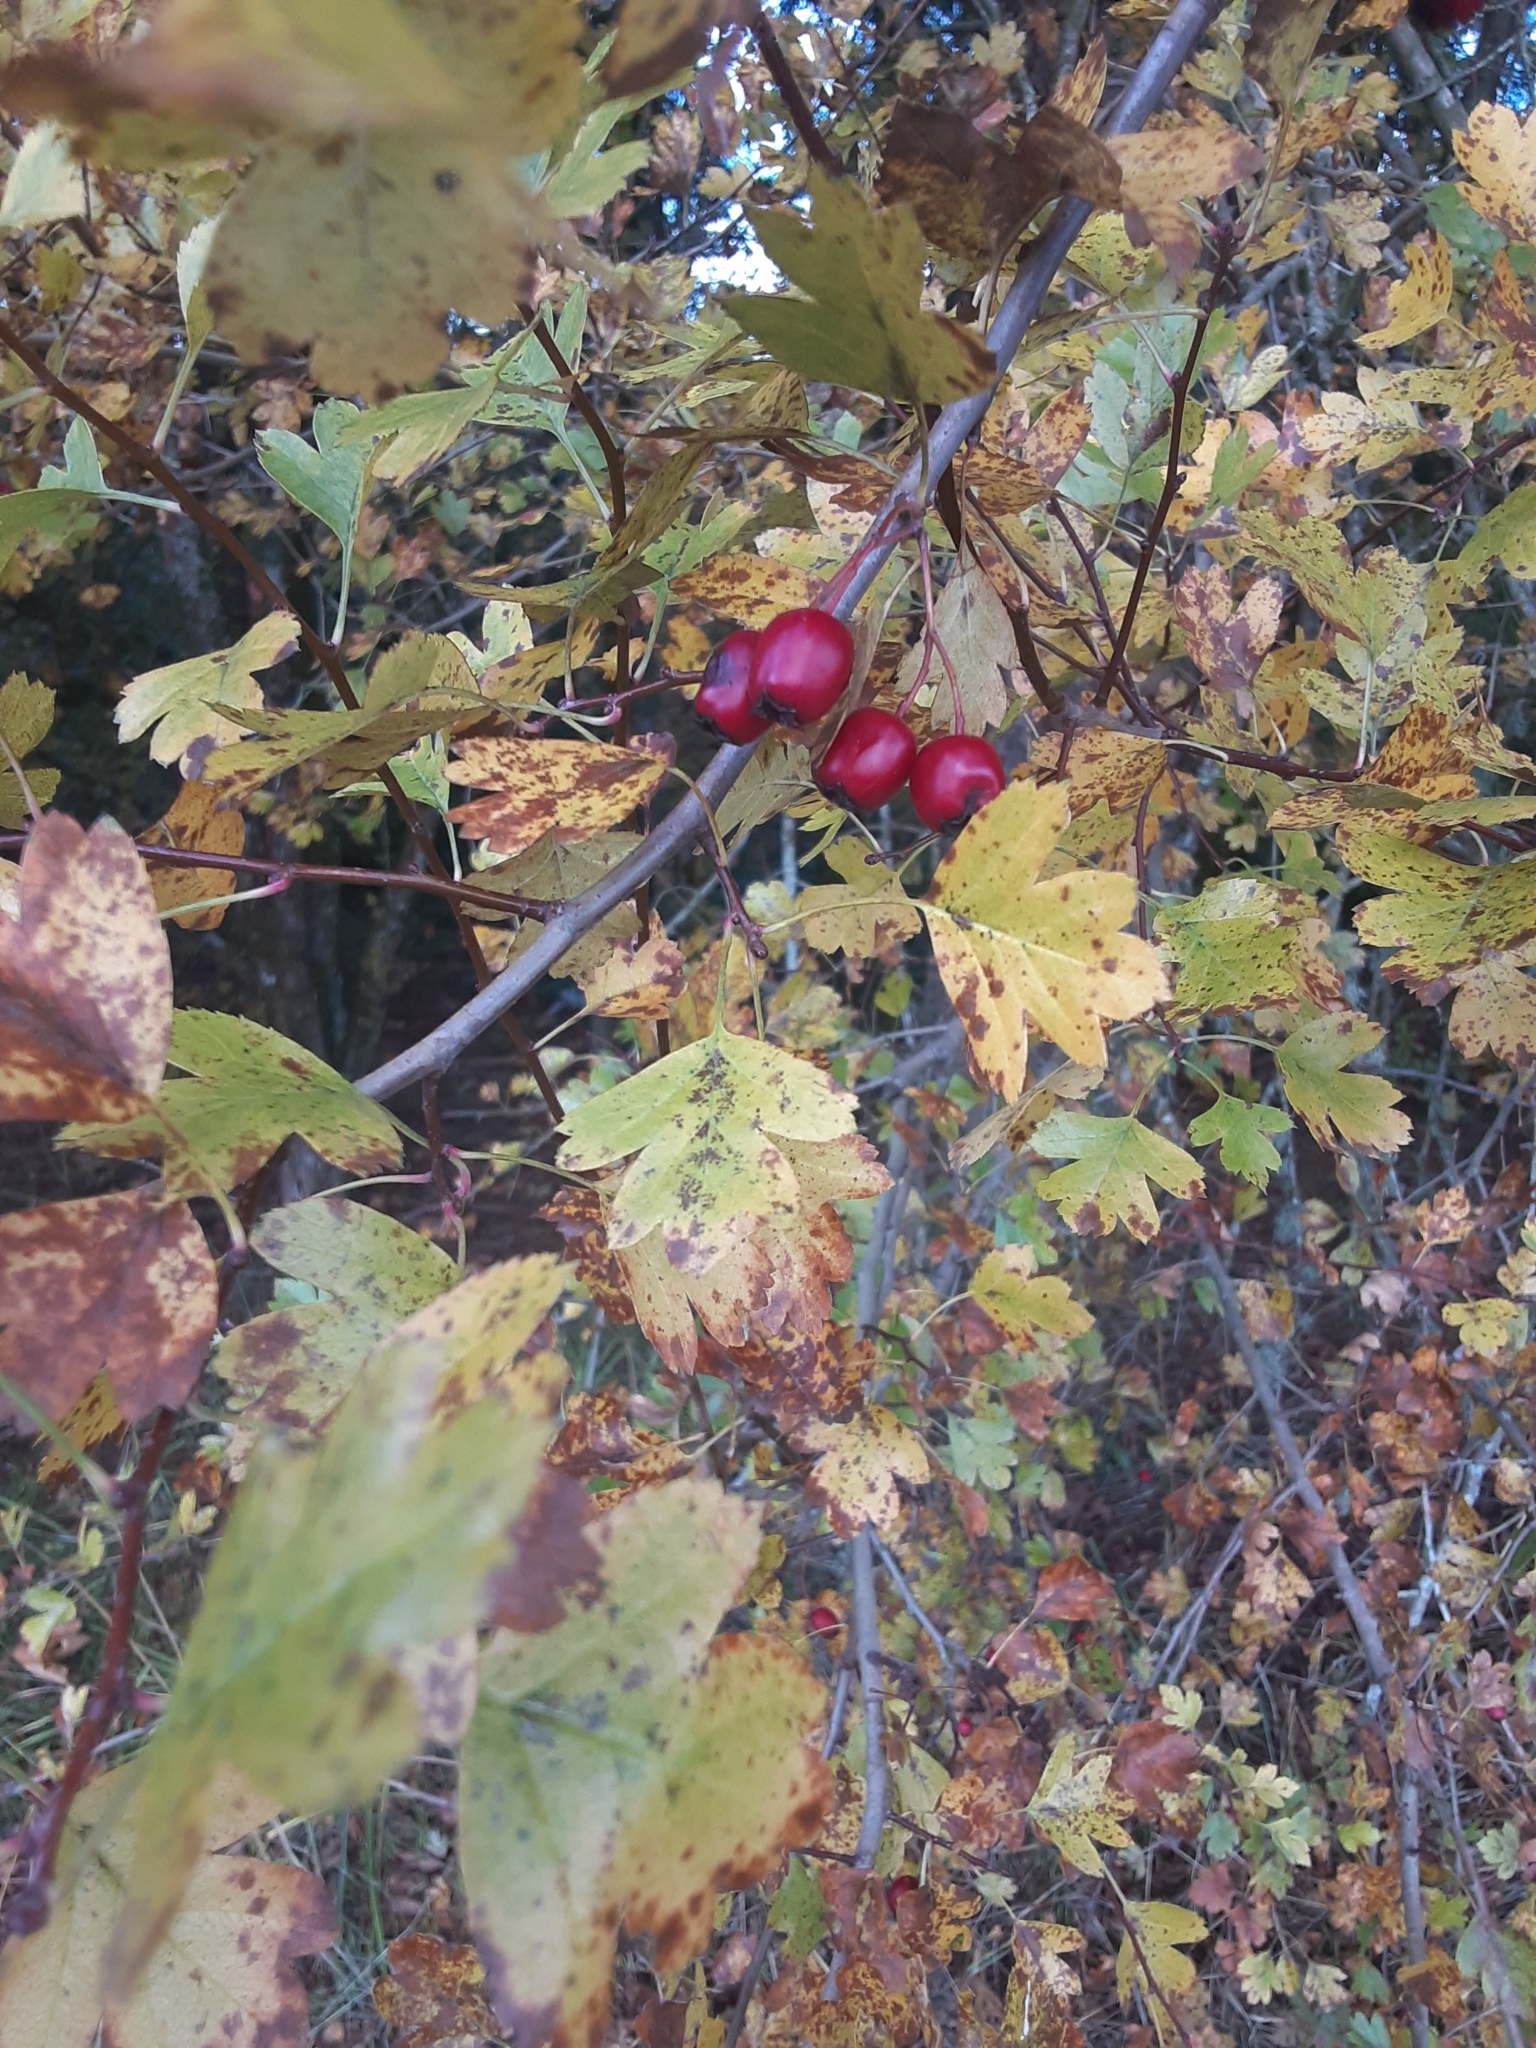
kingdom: Plantae
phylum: Tracheophyta
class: Magnoliopsida
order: Rosales
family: Rosaceae
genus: Crataegus
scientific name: Crataegus monogyna
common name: Hawthorn
